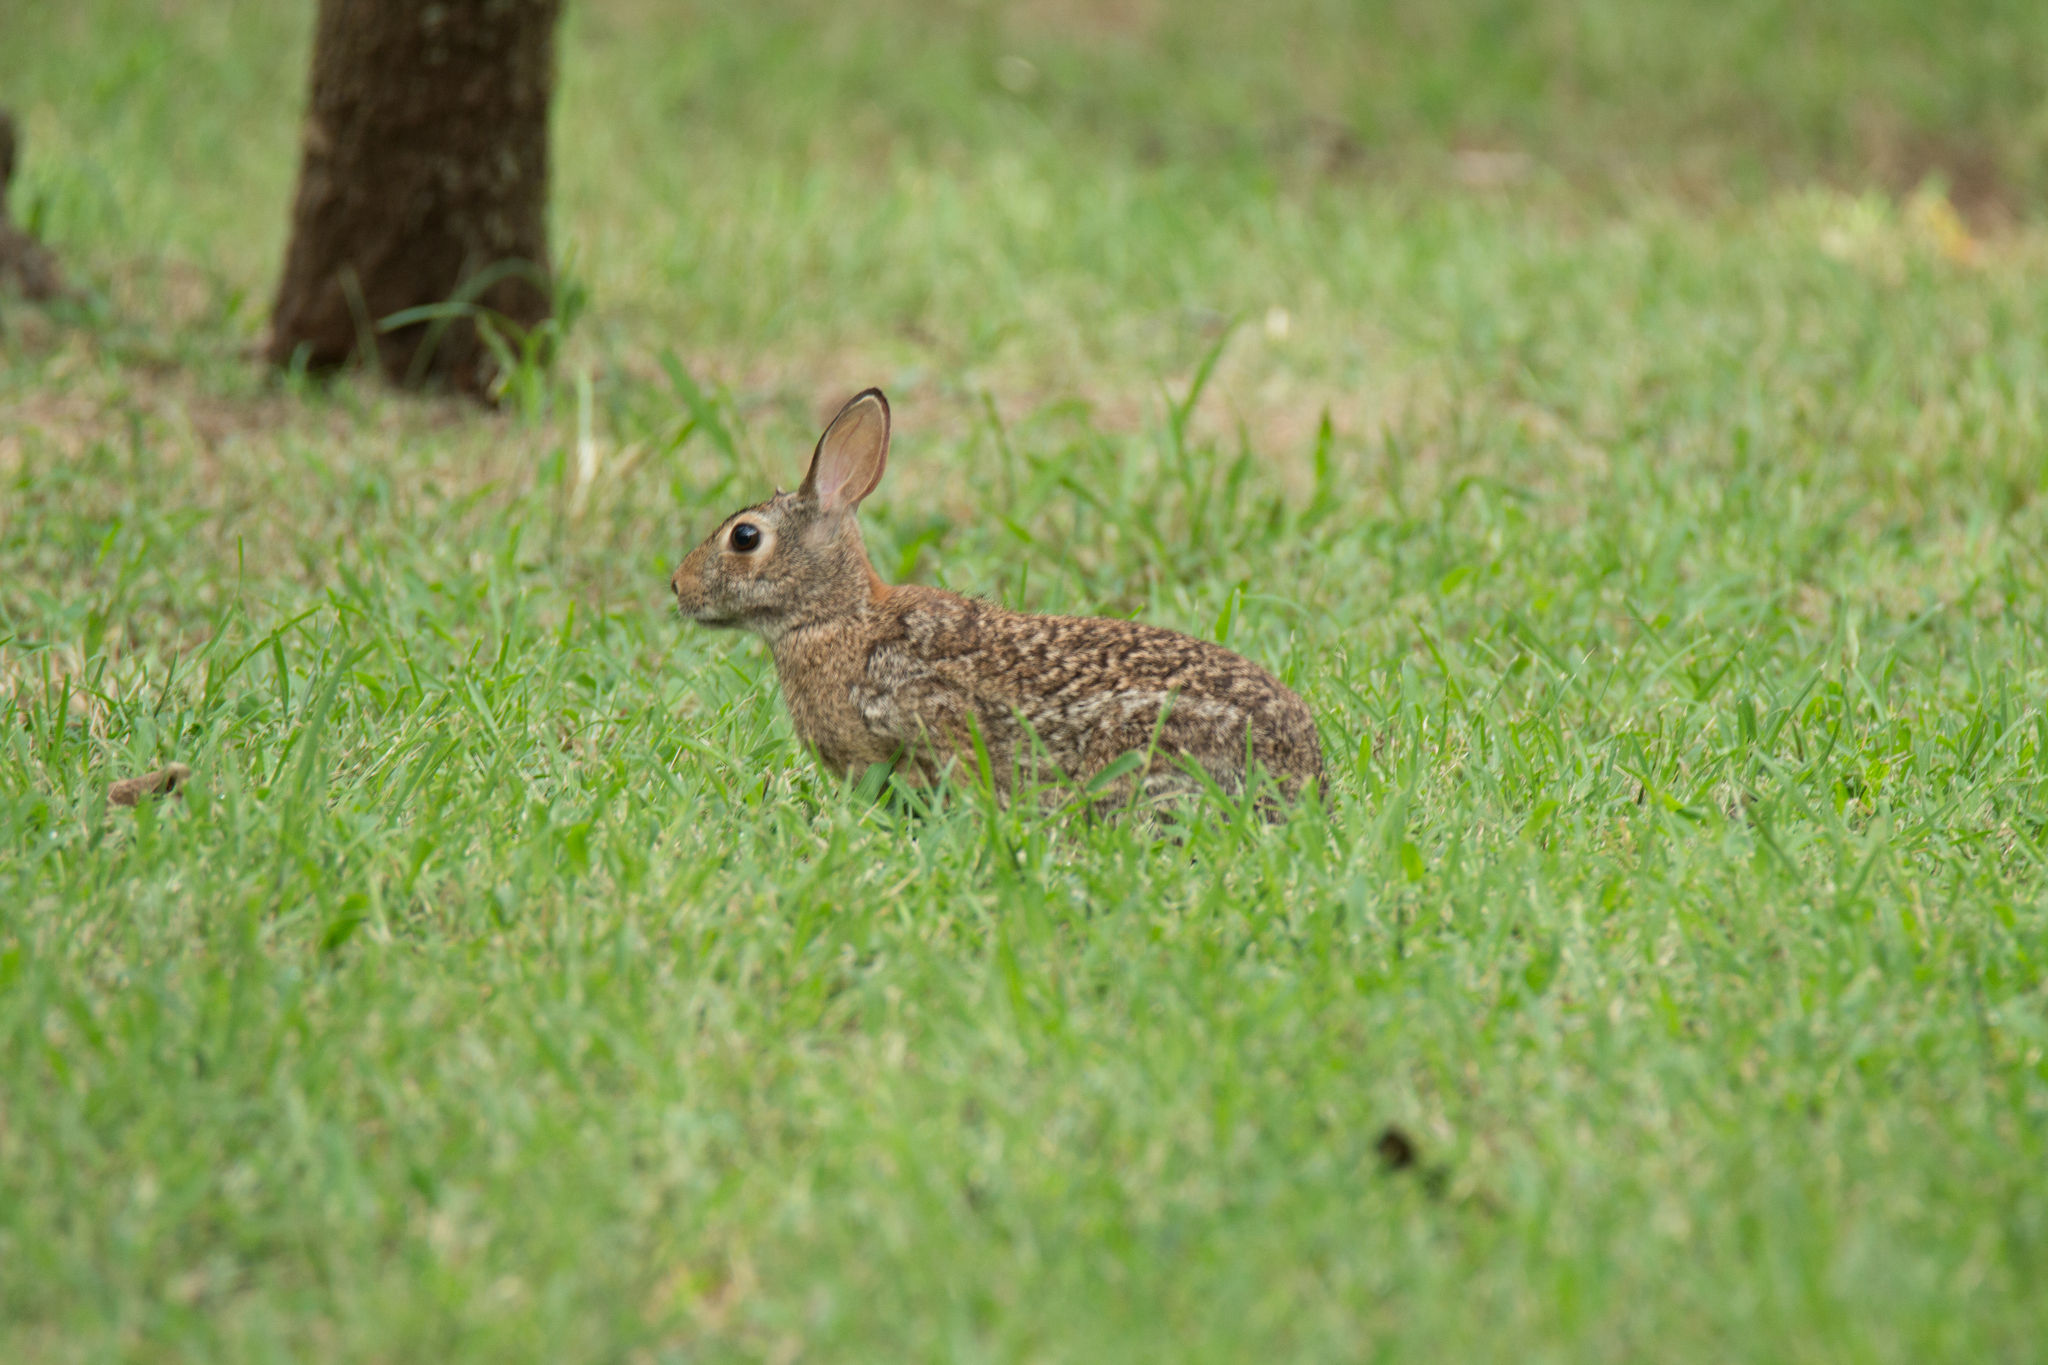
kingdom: Animalia
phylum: Chordata
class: Mammalia
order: Lagomorpha
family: Leporidae
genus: Sylvilagus
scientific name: Sylvilagus floridanus
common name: Eastern cottontail
